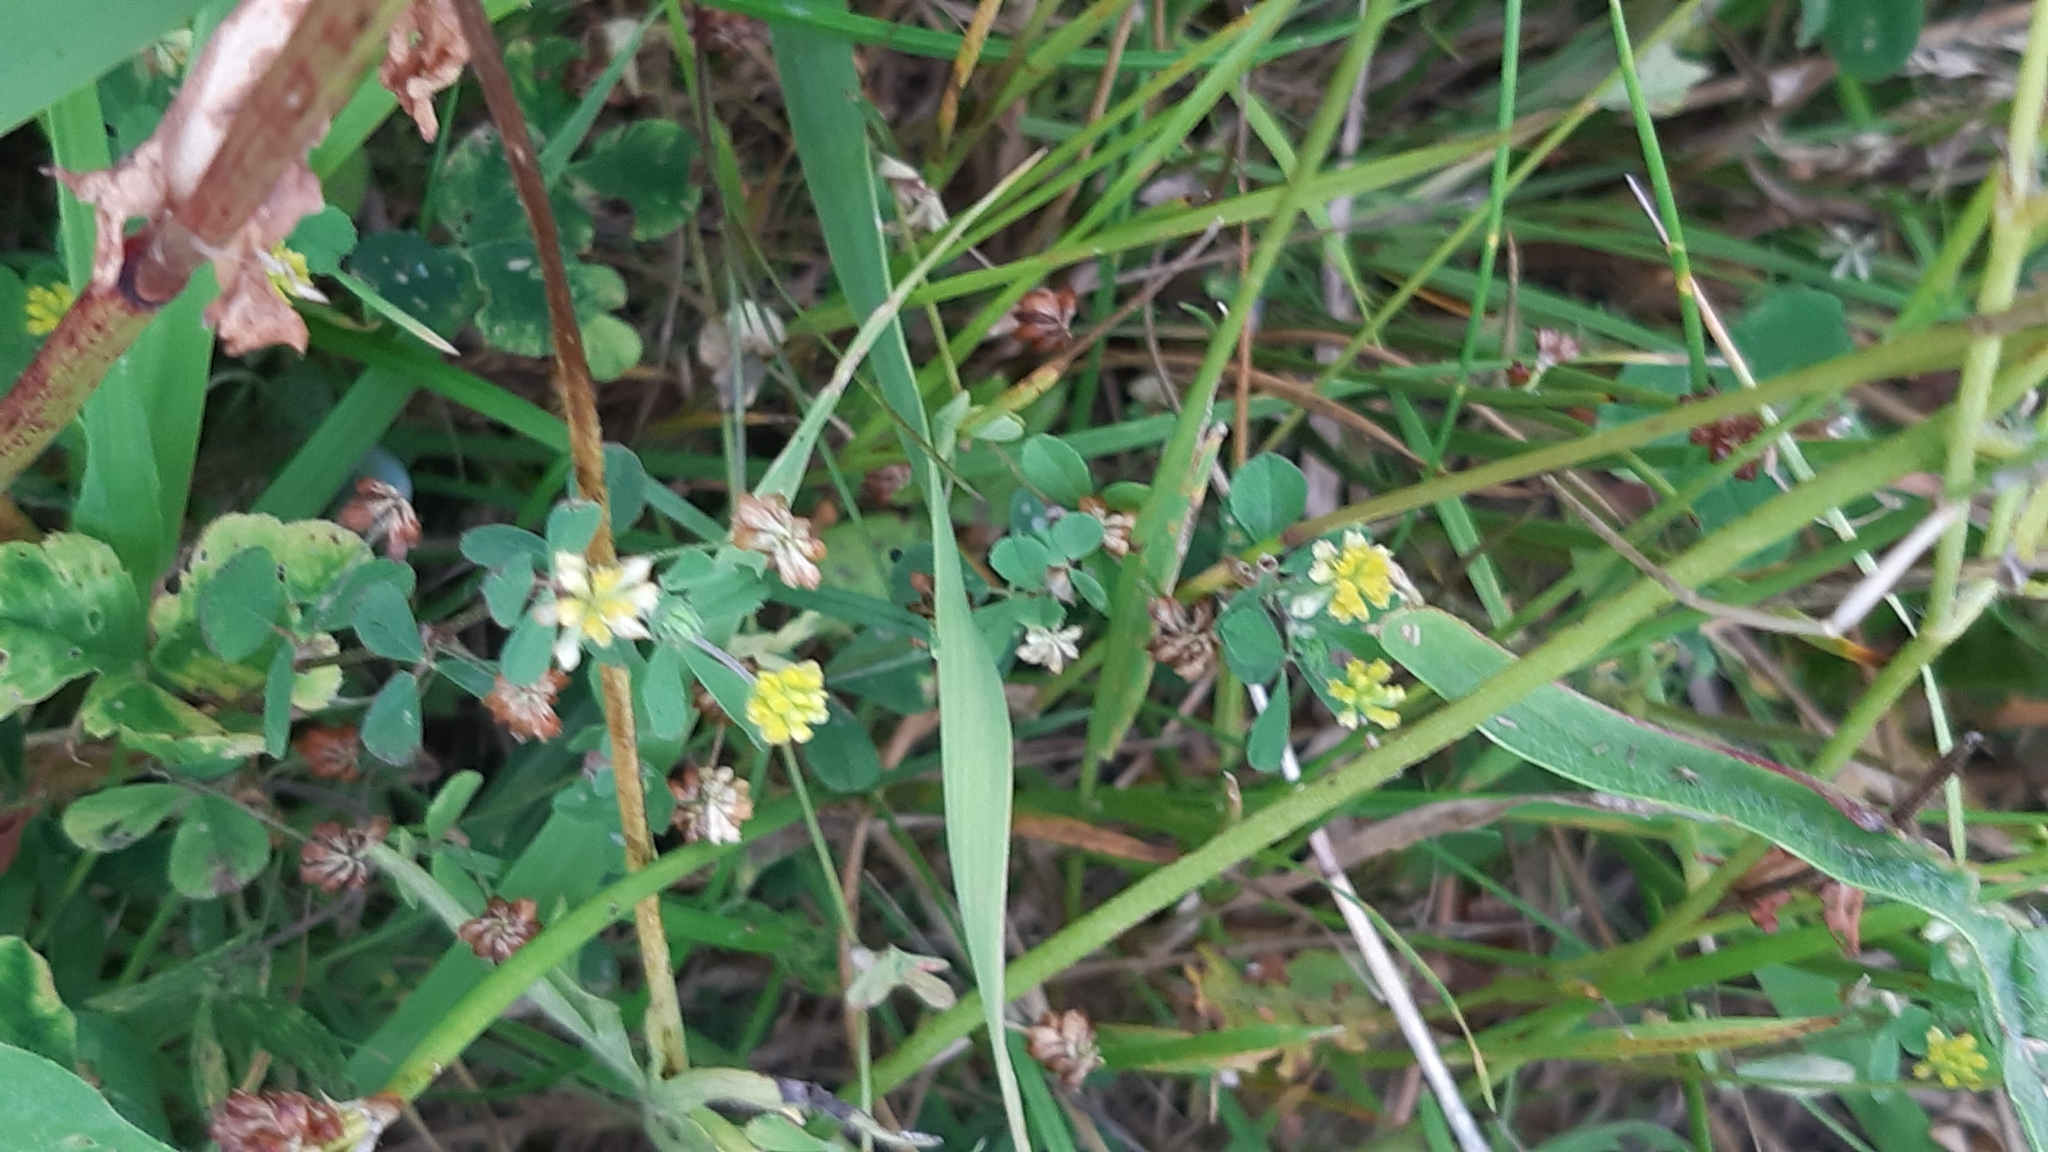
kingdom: Plantae
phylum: Tracheophyta
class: Magnoliopsida
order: Fabales
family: Fabaceae
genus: Trifolium
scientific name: Trifolium dubium
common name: Suckling clover
